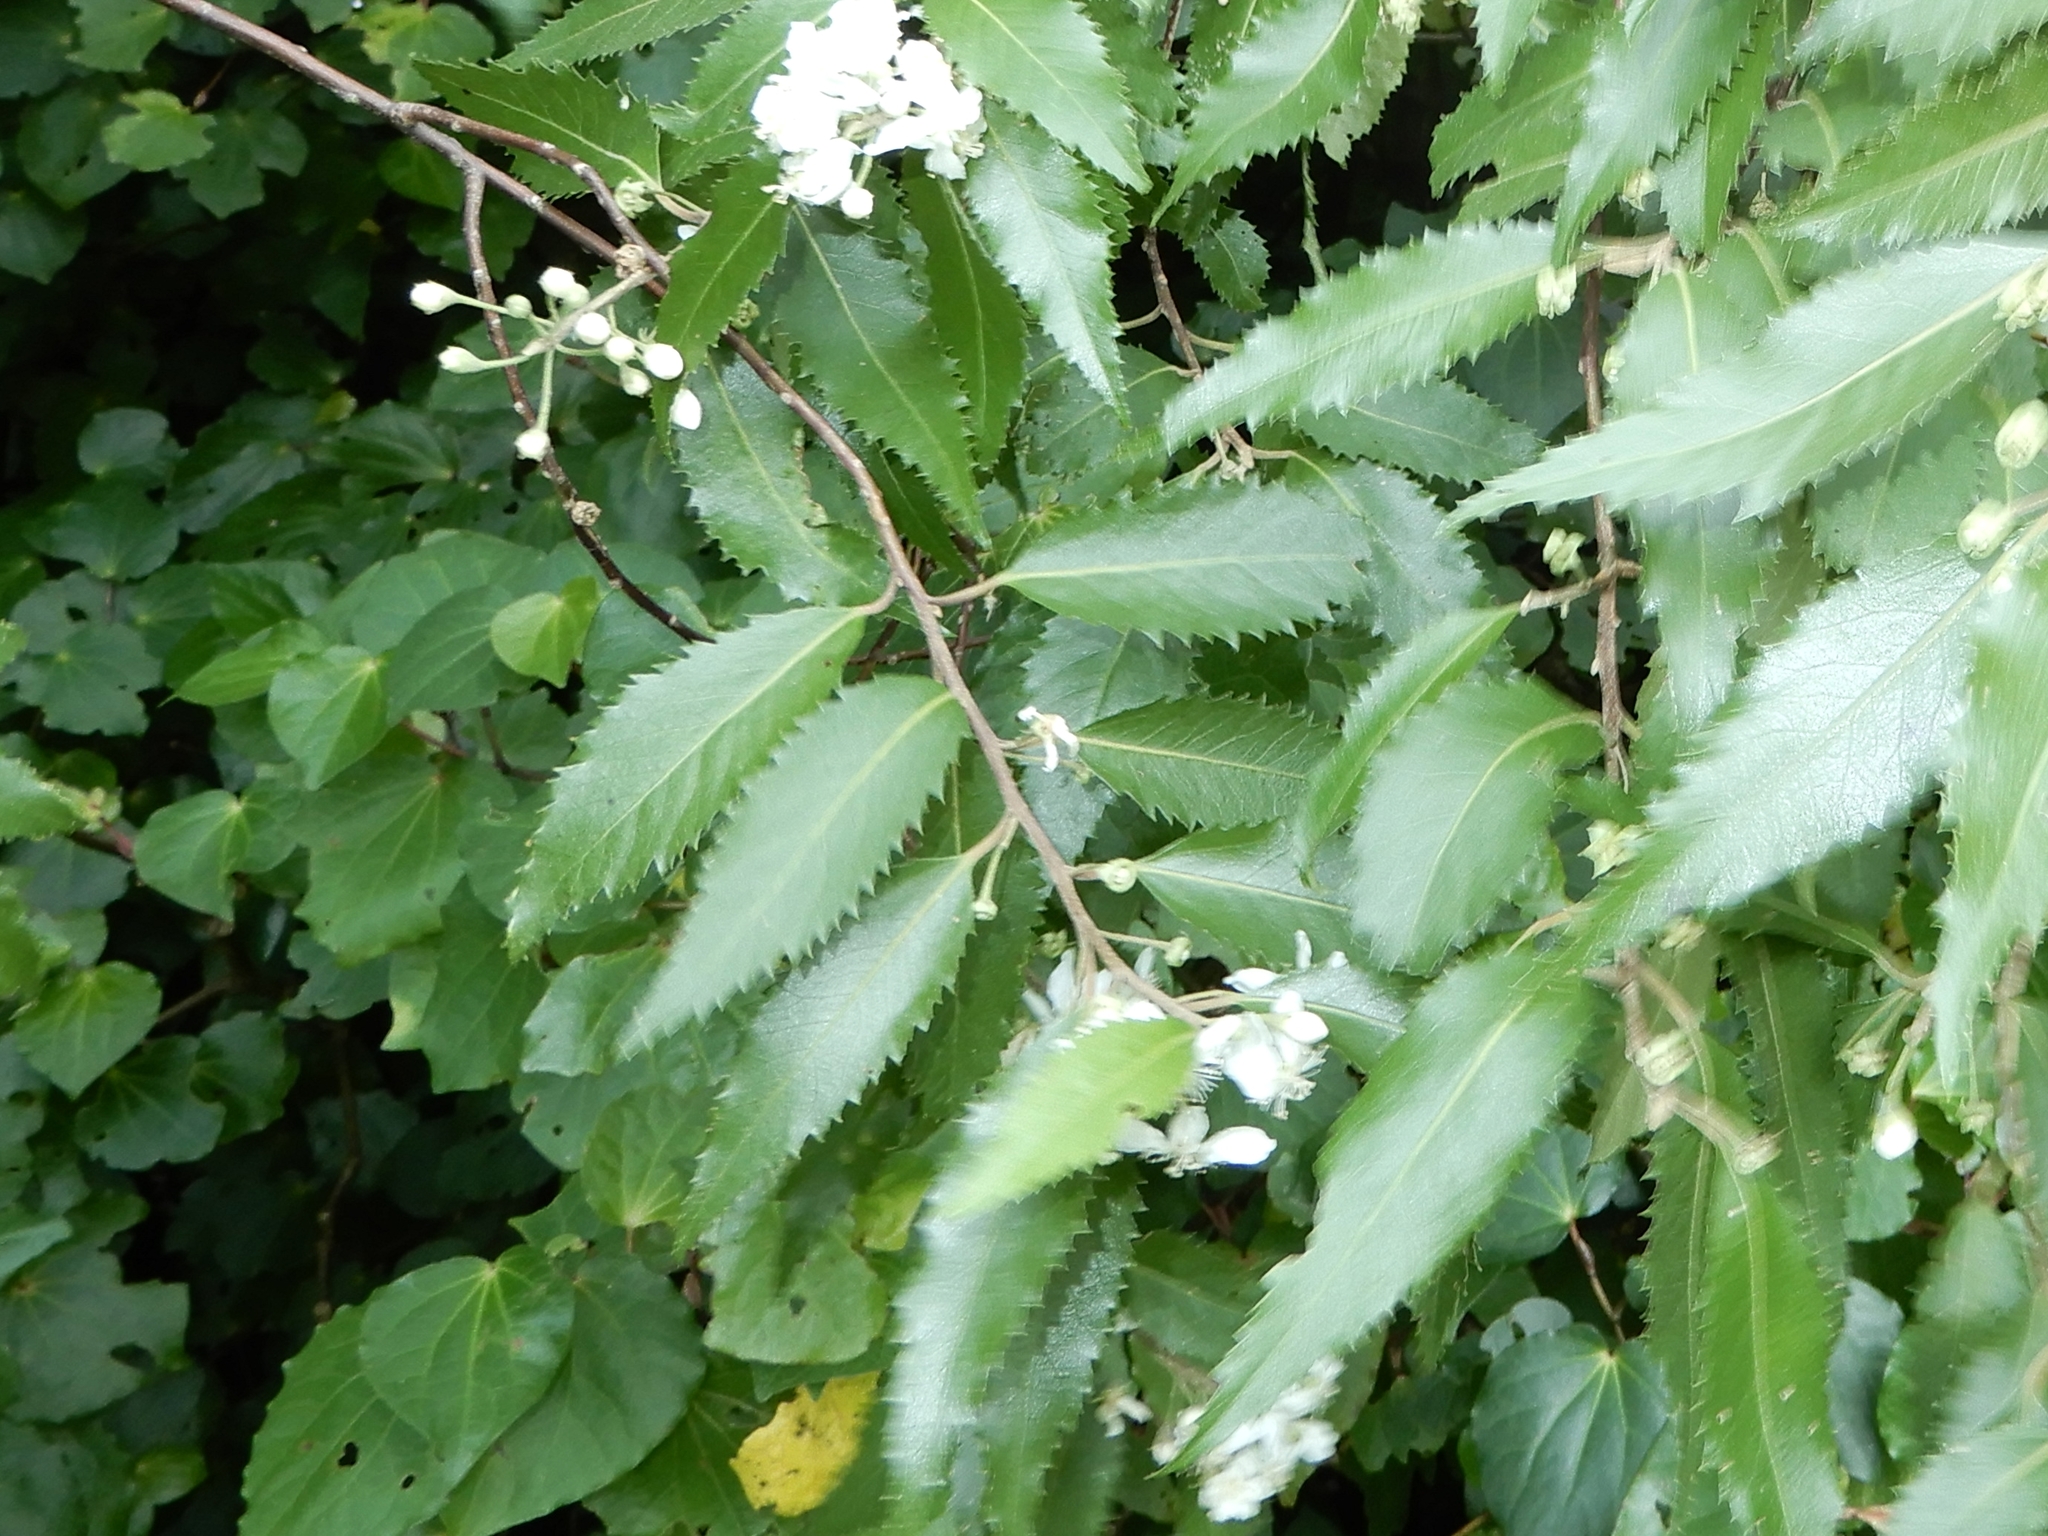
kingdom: Plantae
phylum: Tracheophyta
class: Magnoliopsida
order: Malvales
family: Malvaceae
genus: Hoheria
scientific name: Hoheria sexstylosa
